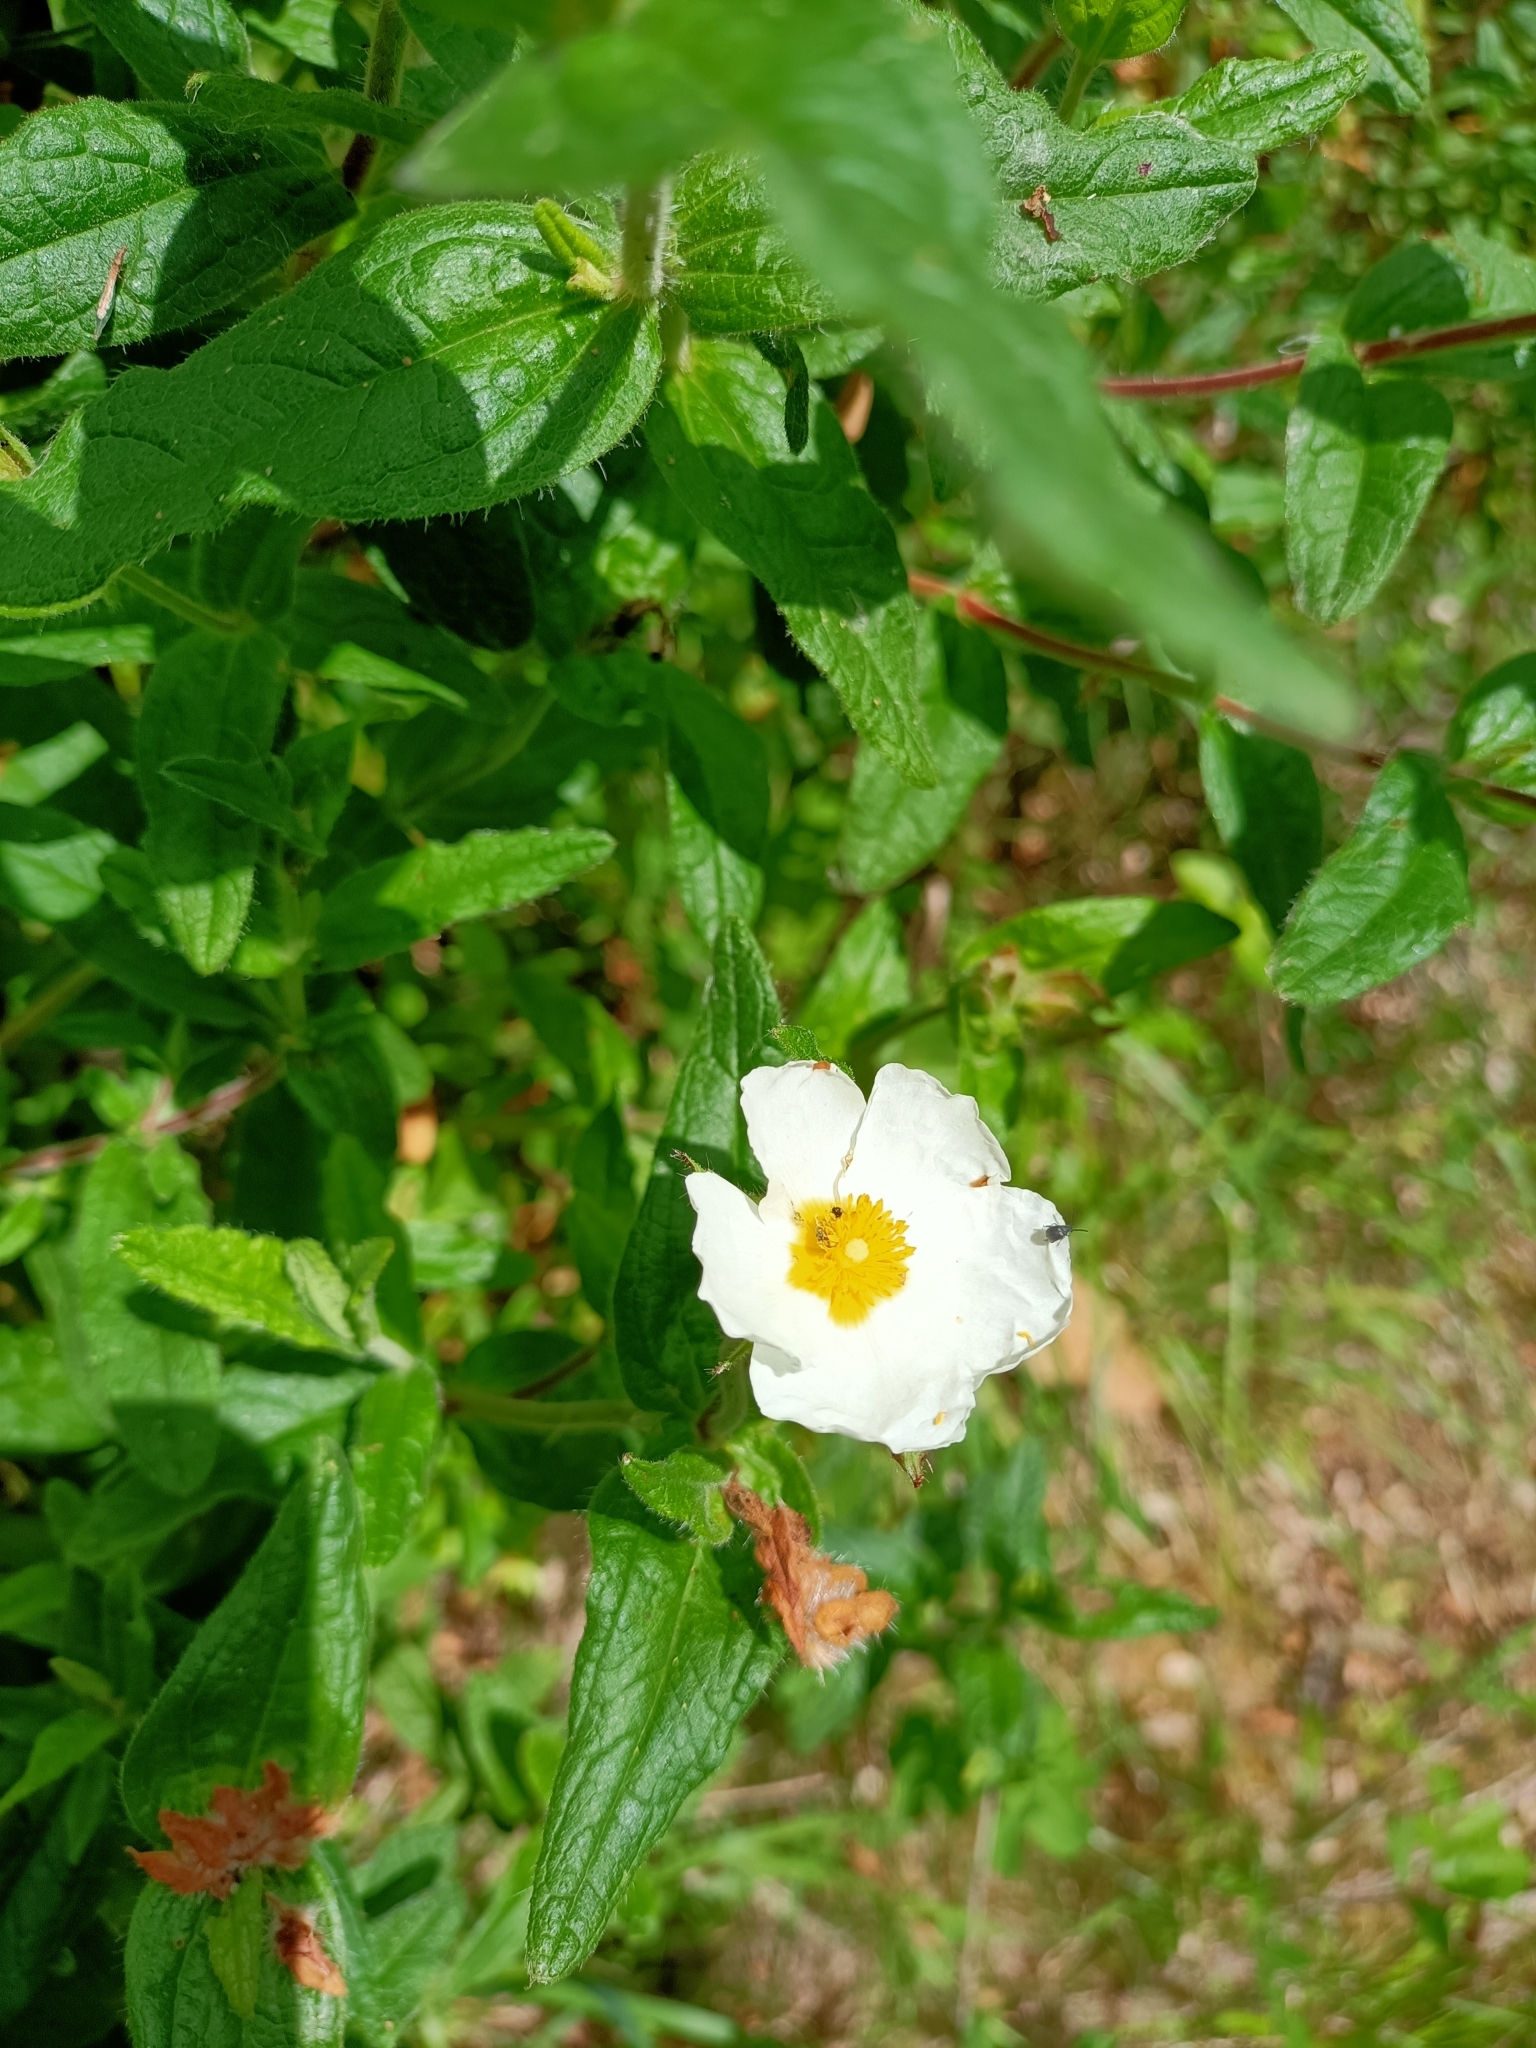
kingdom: Plantae
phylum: Tracheophyta
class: Magnoliopsida
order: Malvales
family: Cistaceae
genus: Cistus
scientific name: Cistus inflatus
